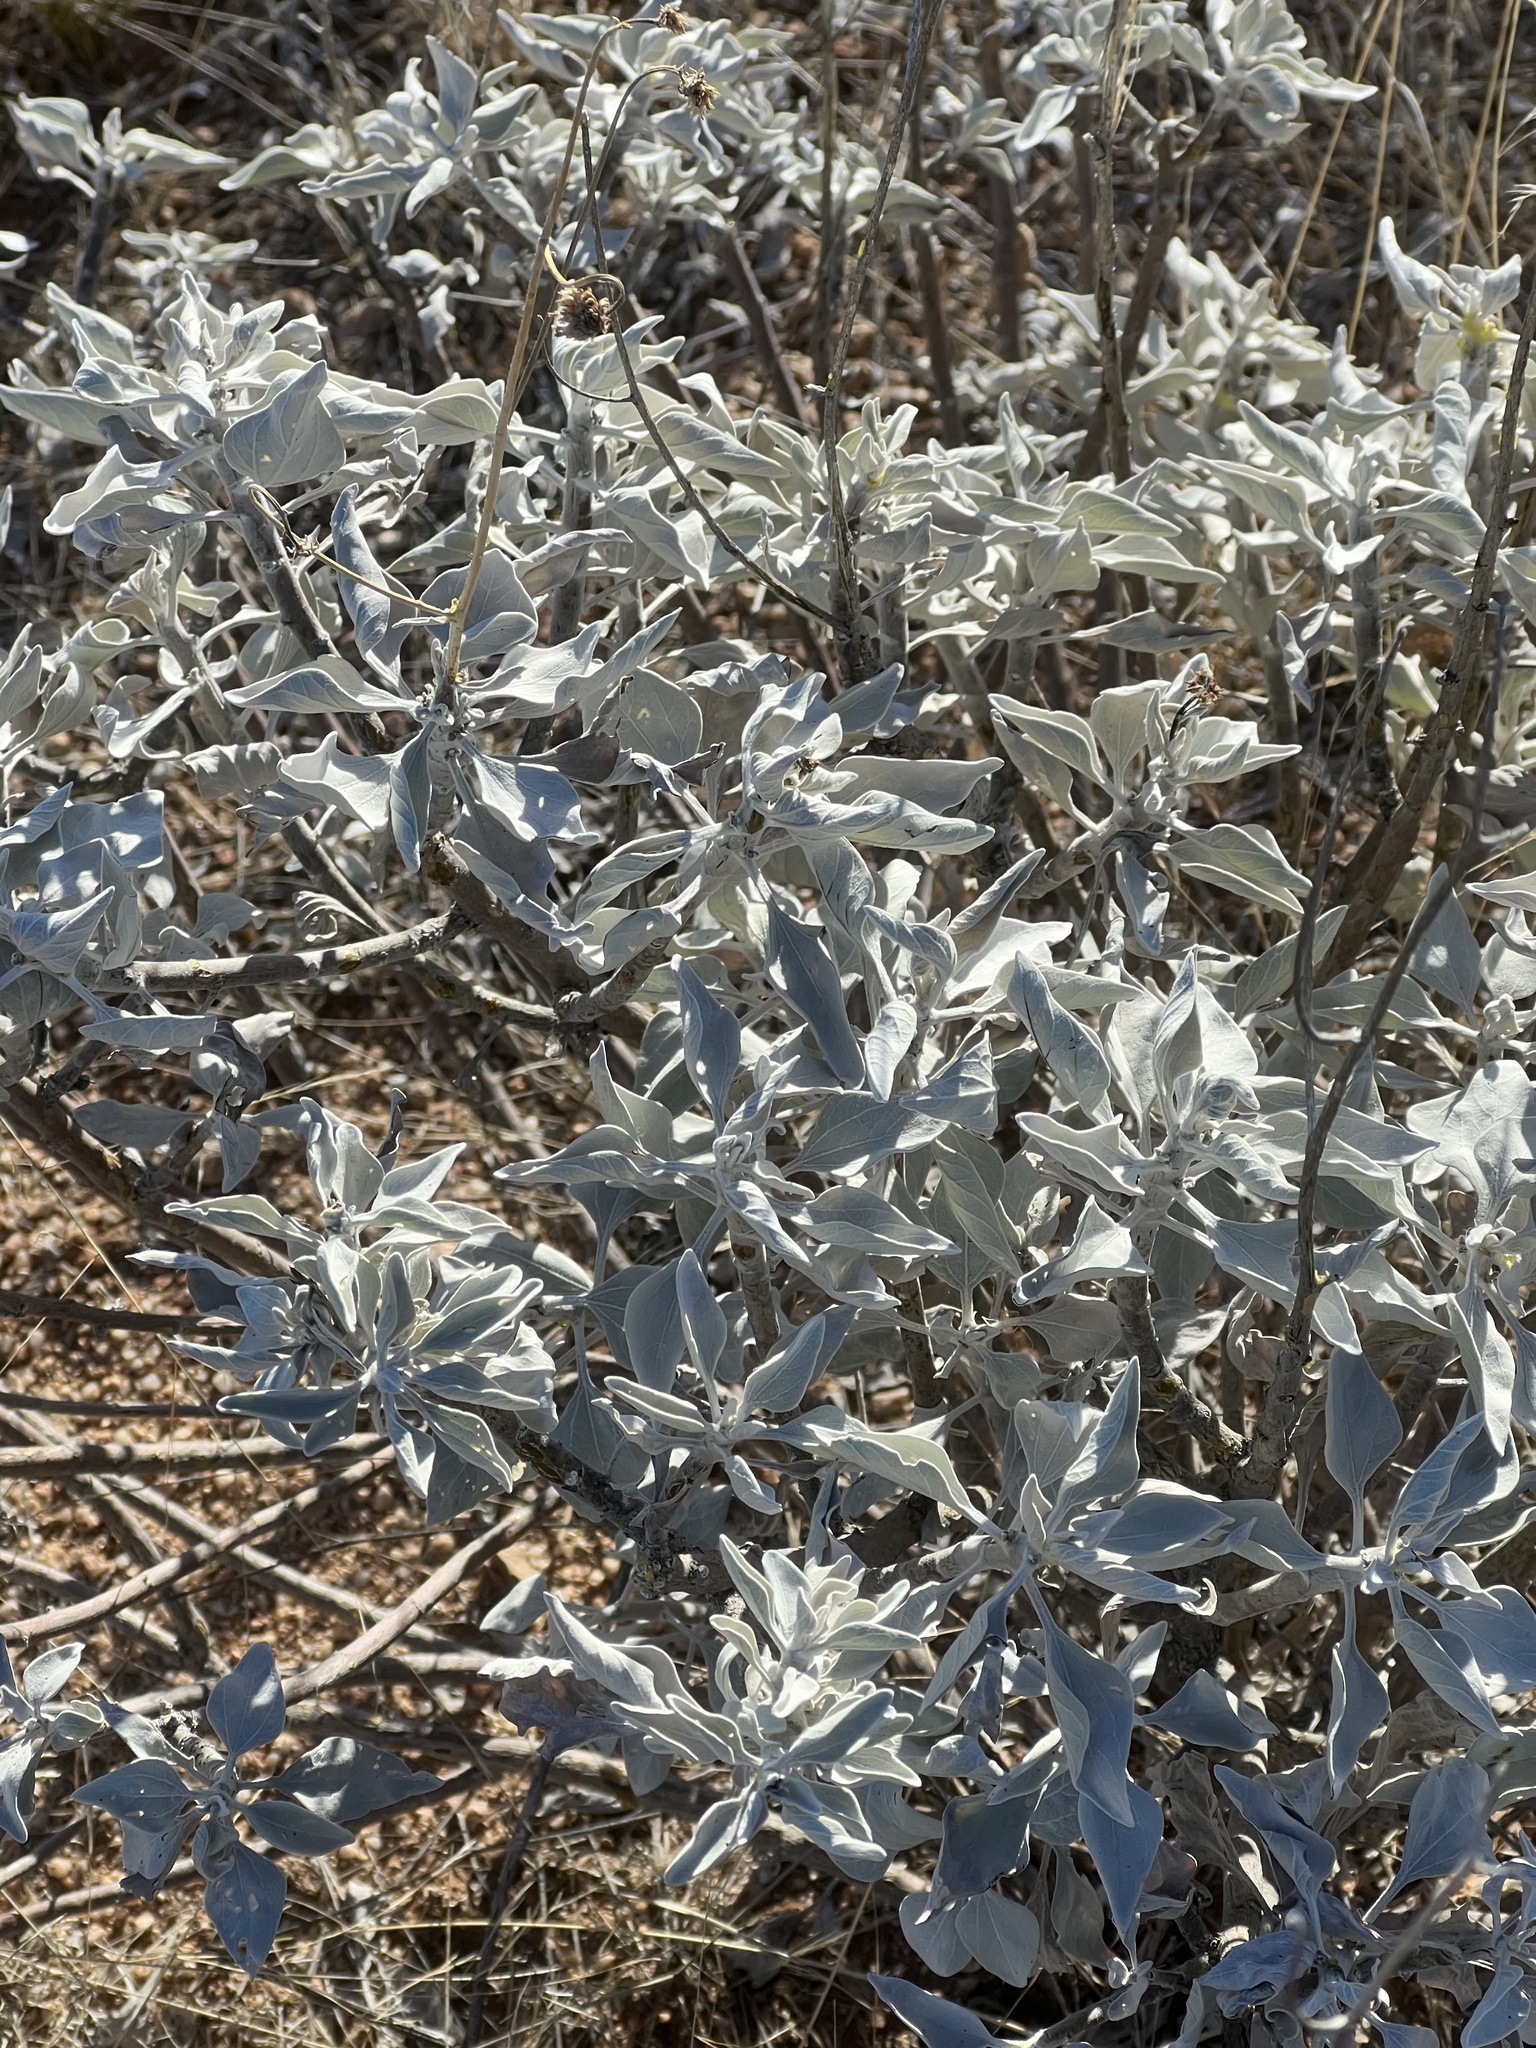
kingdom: Plantae
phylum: Tracheophyta
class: Magnoliopsida
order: Asterales
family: Asteraceae
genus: Encelia
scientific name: Encelia farinosa
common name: Brittlebush
